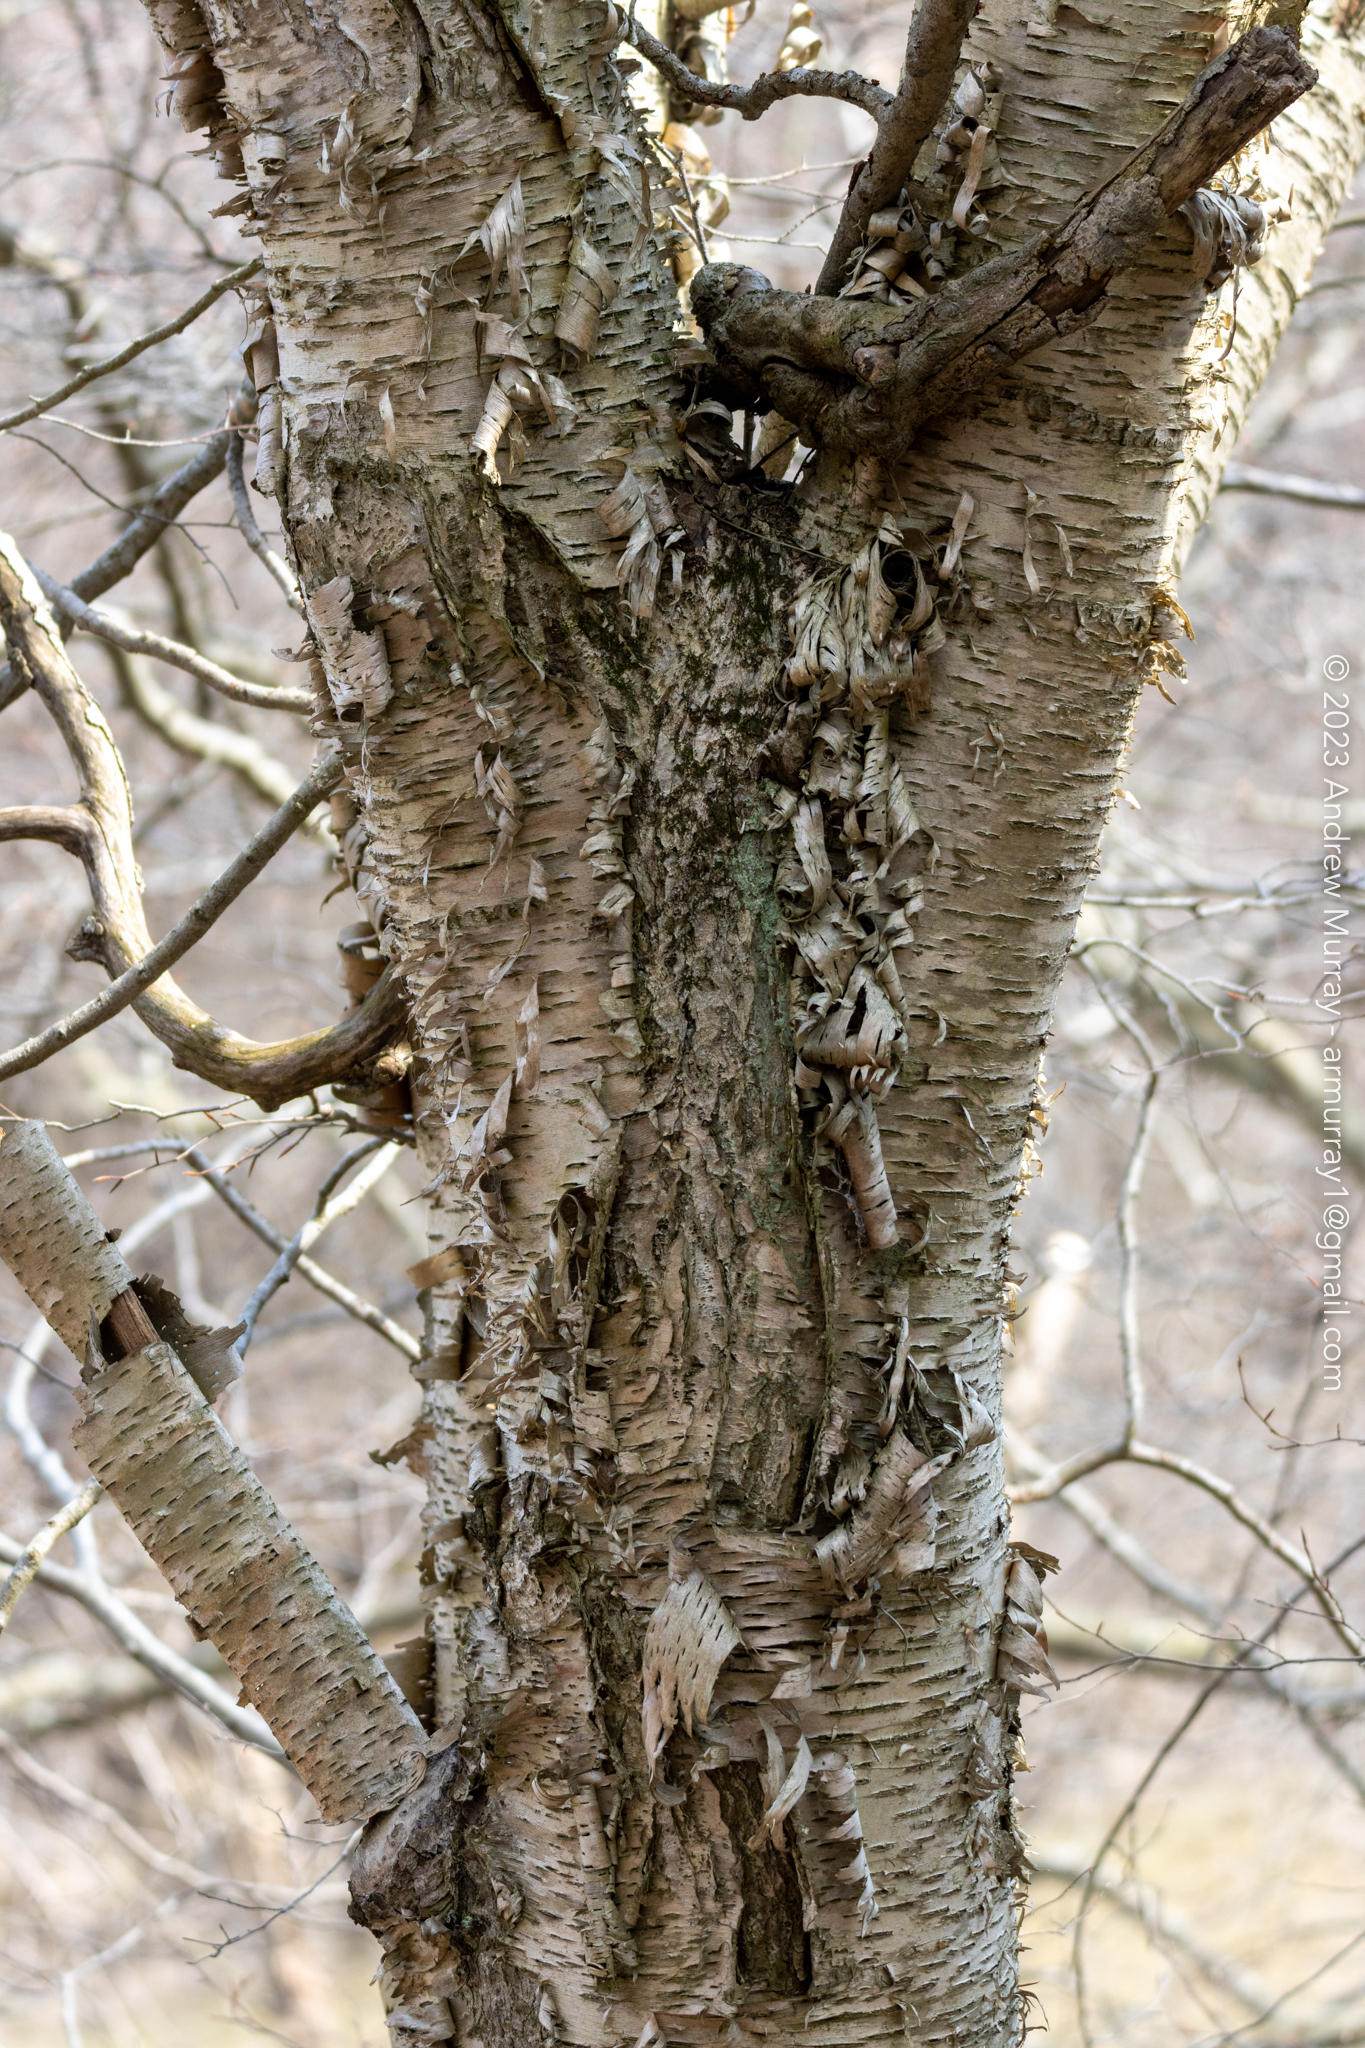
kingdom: Plantae
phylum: Tracheophyta
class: Magnoliopsida
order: Fagales
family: Betulaceae
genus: Betula
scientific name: Betula alleghaniensis
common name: Yellow birch
